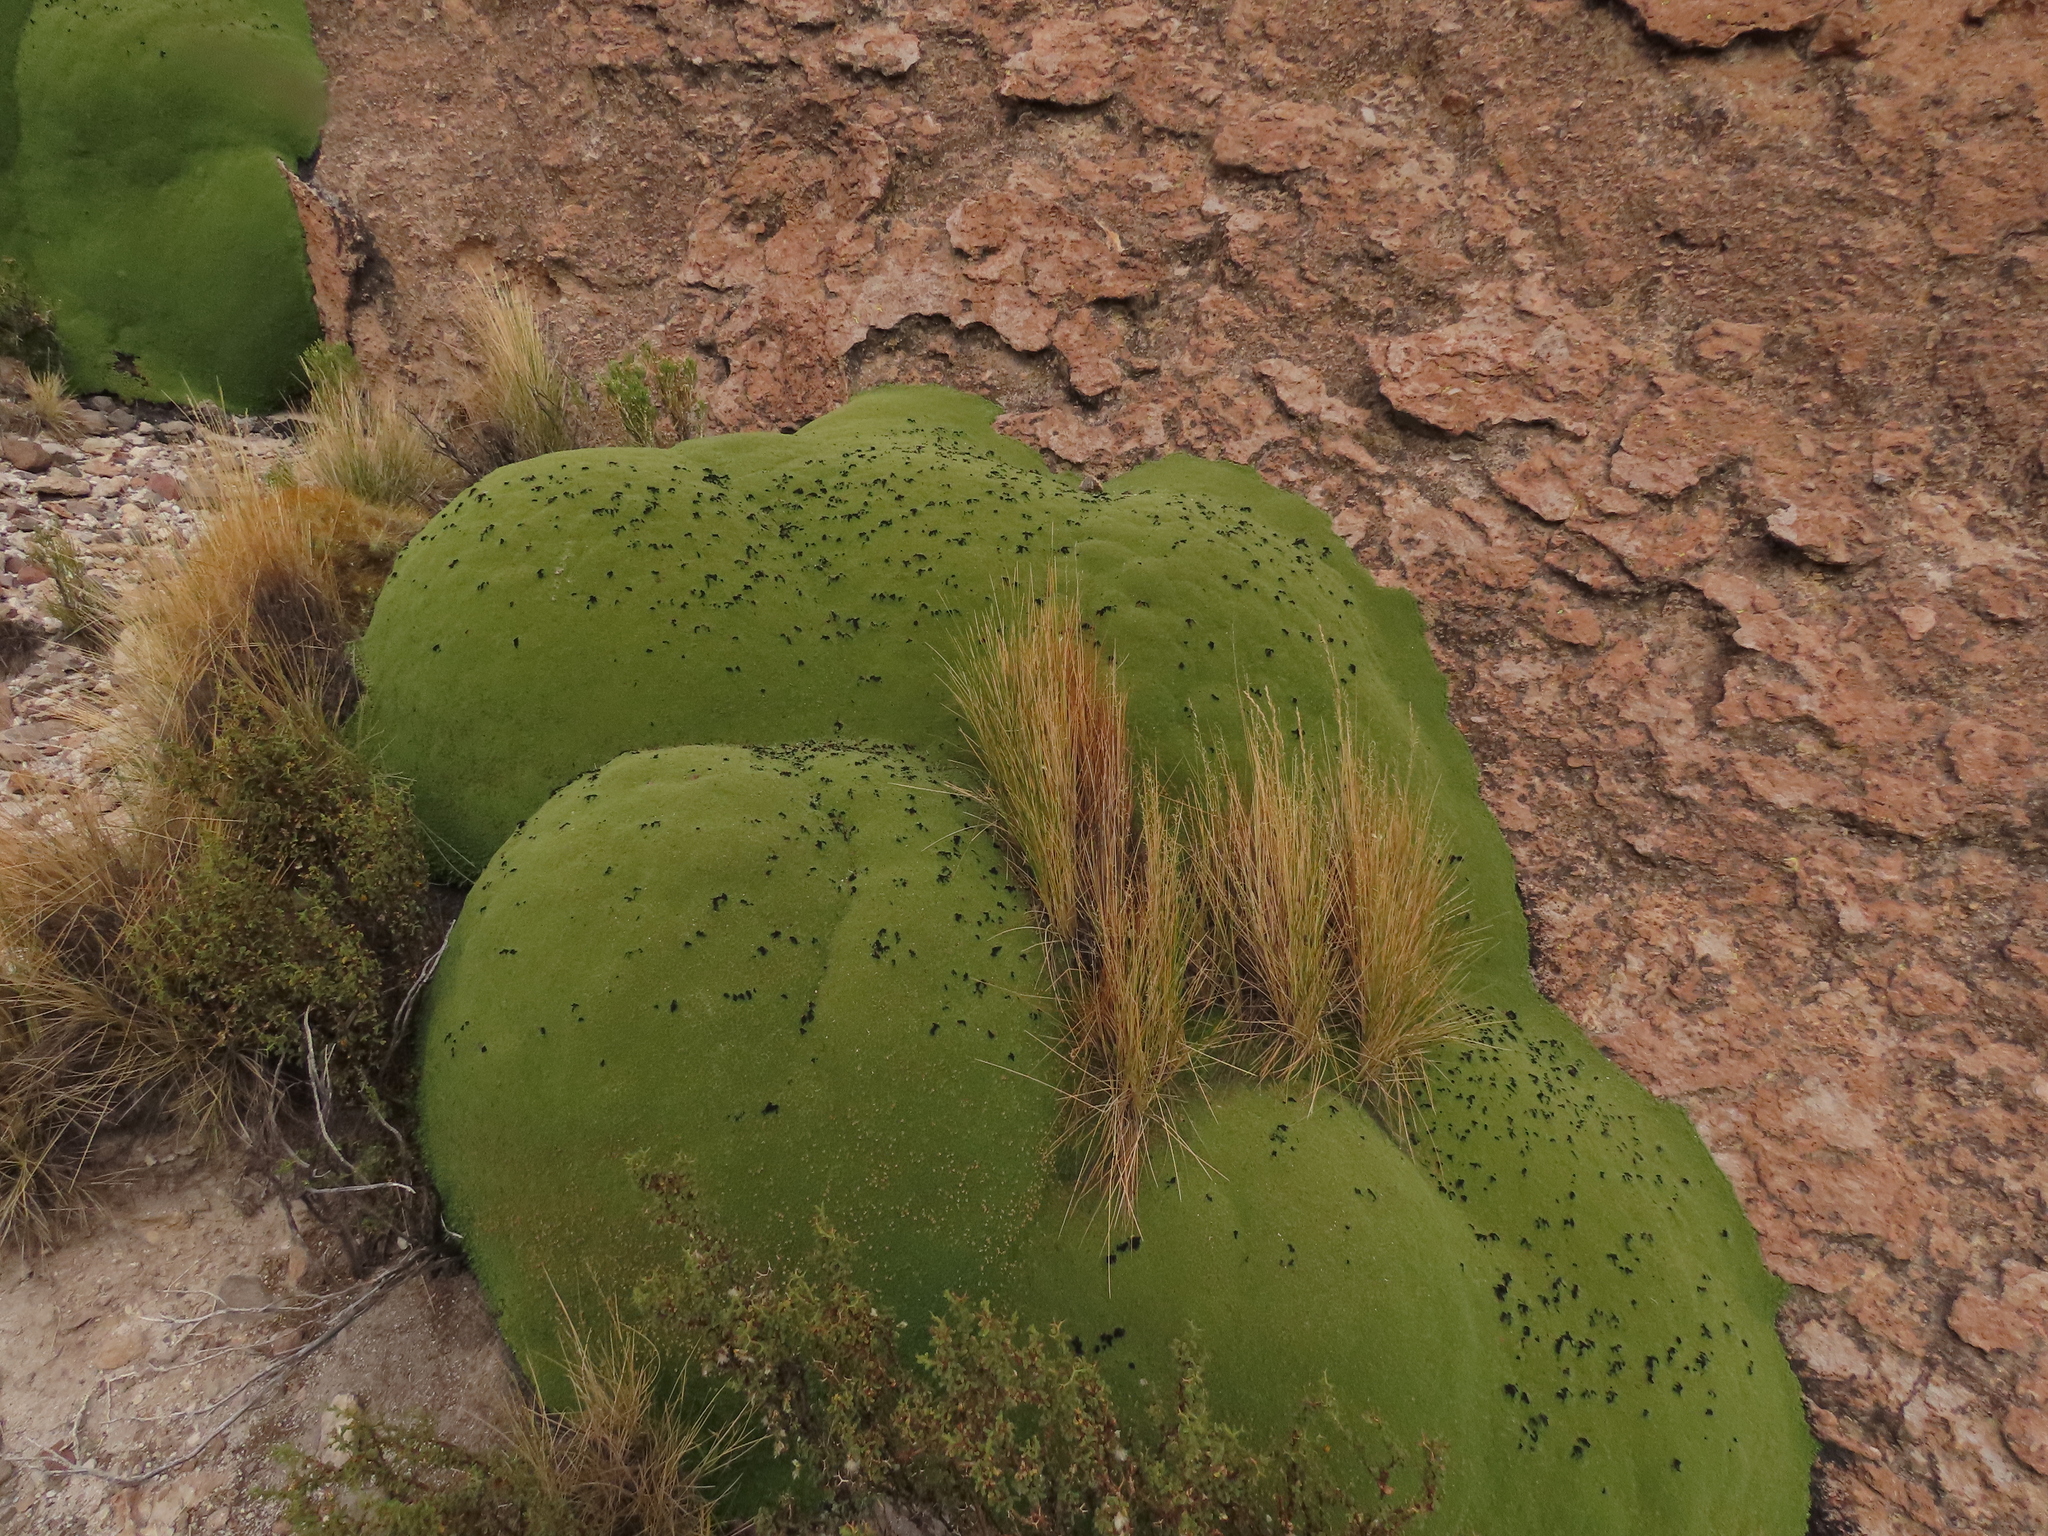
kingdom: Plantae
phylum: Tracheophyta
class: Magnoliopsida
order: Apiales
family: Apiaceae
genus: Azorella
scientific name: Azorella compacta
